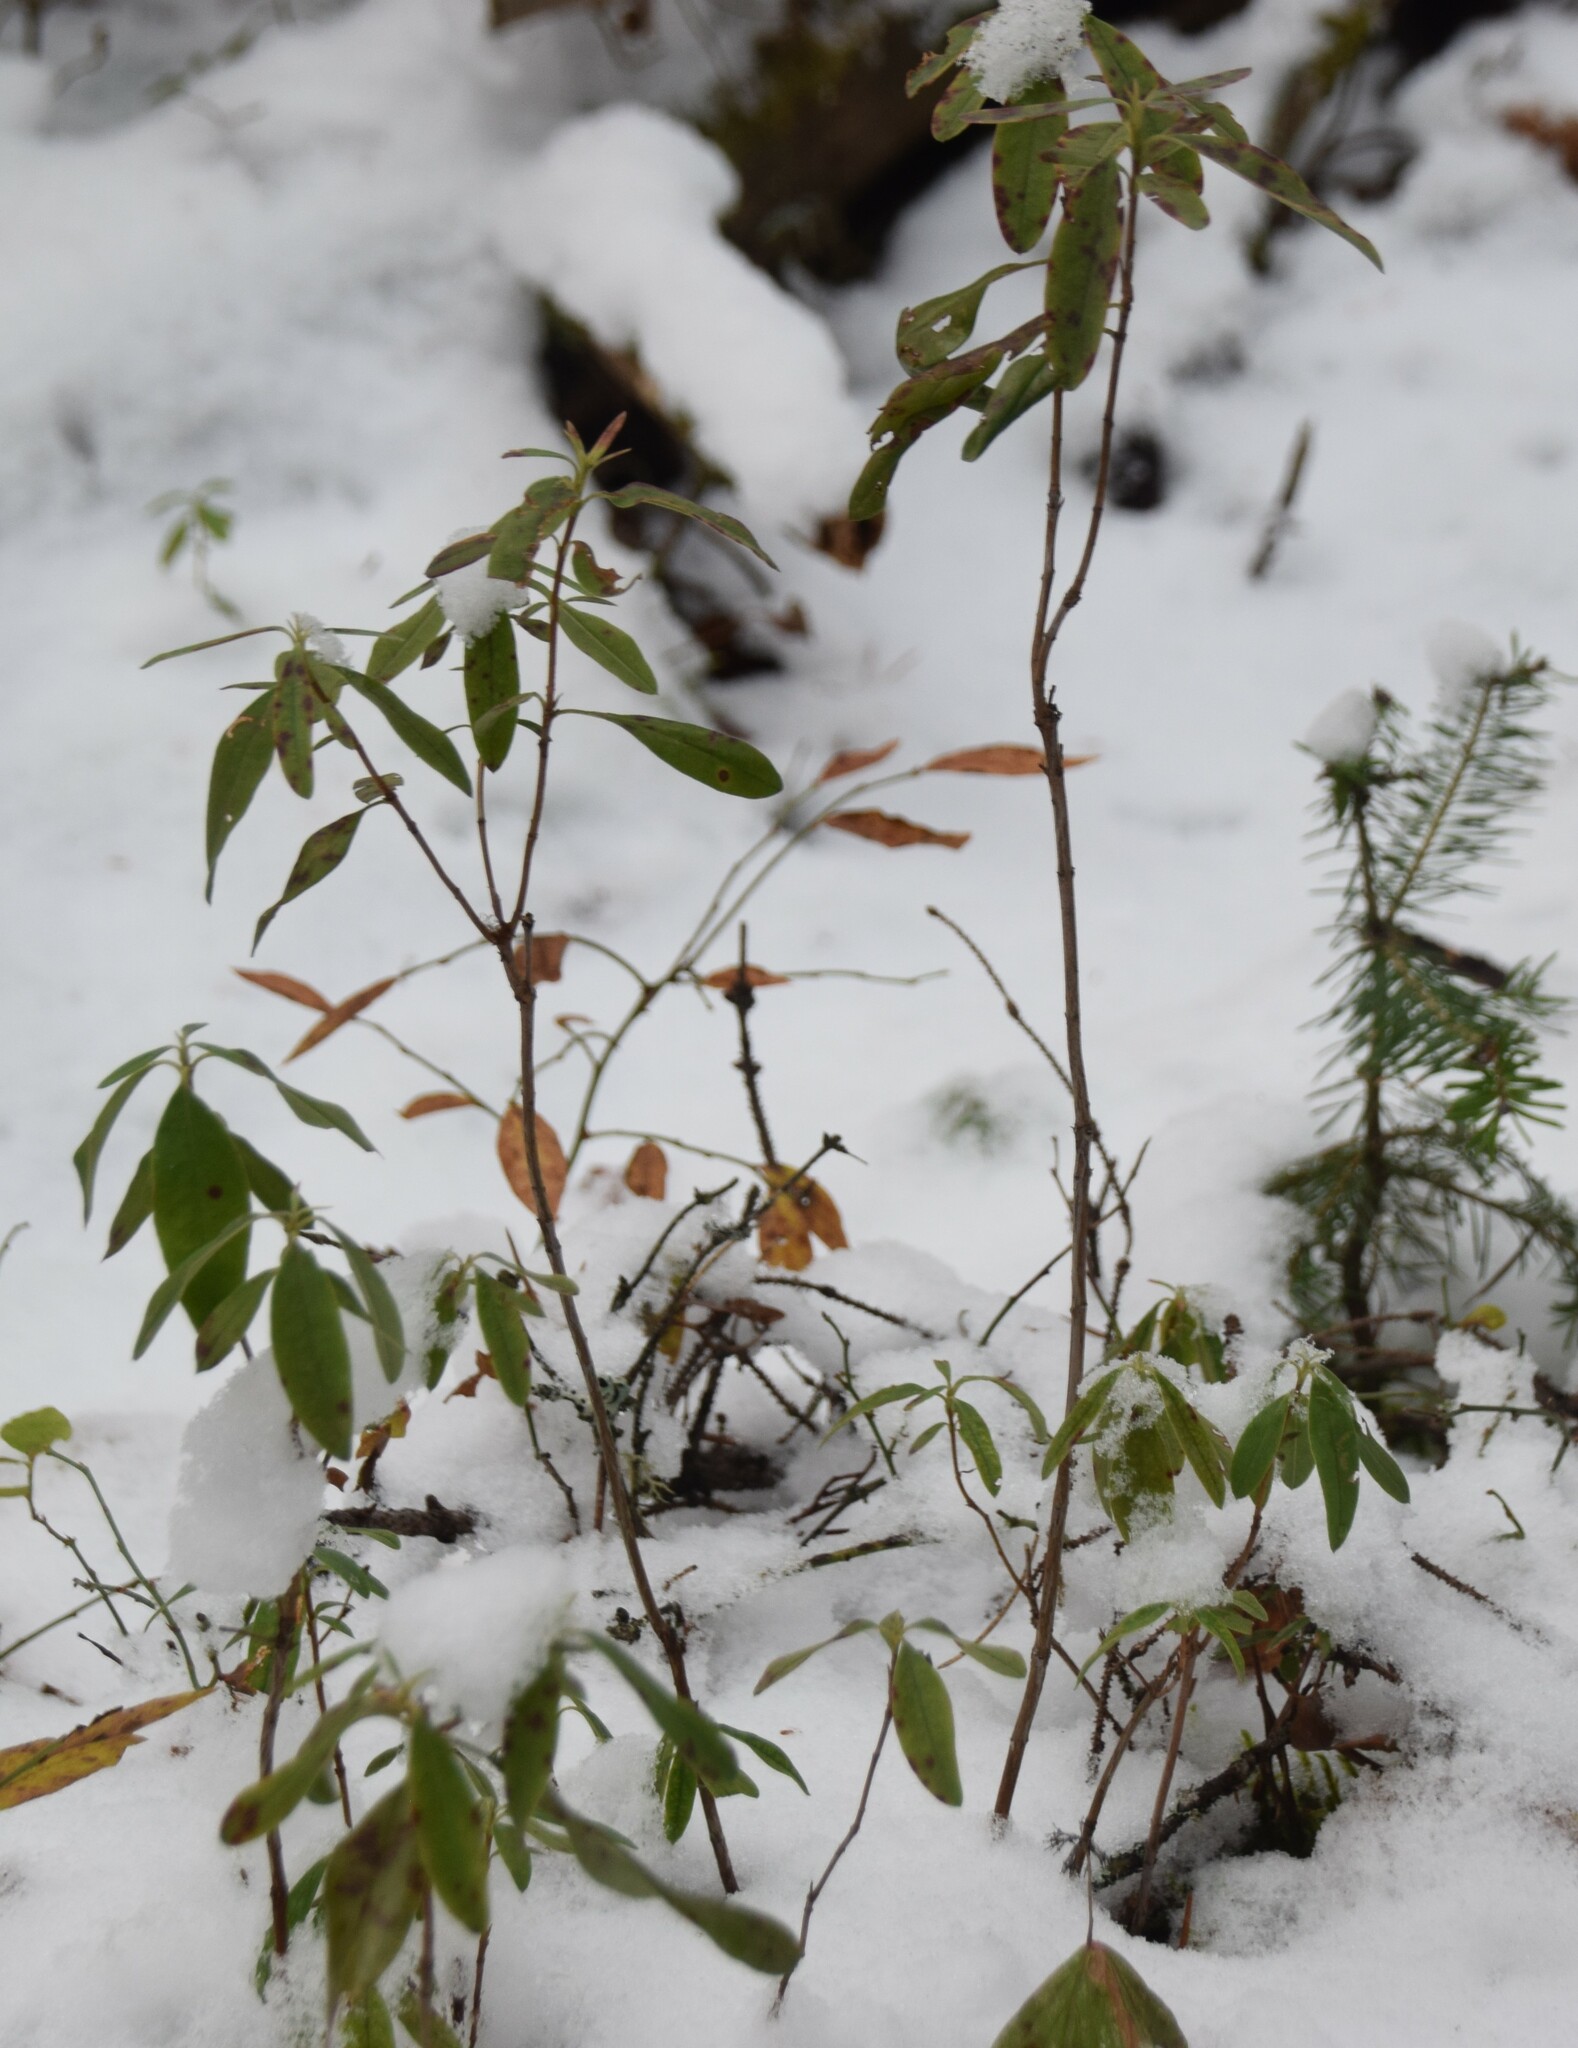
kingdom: Plantae
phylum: Tracheophyta
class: Magnoliopsida
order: Ericales
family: Ericaceae
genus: Kalmia
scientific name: Kalmia angustifolia
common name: Sheep-laurel
